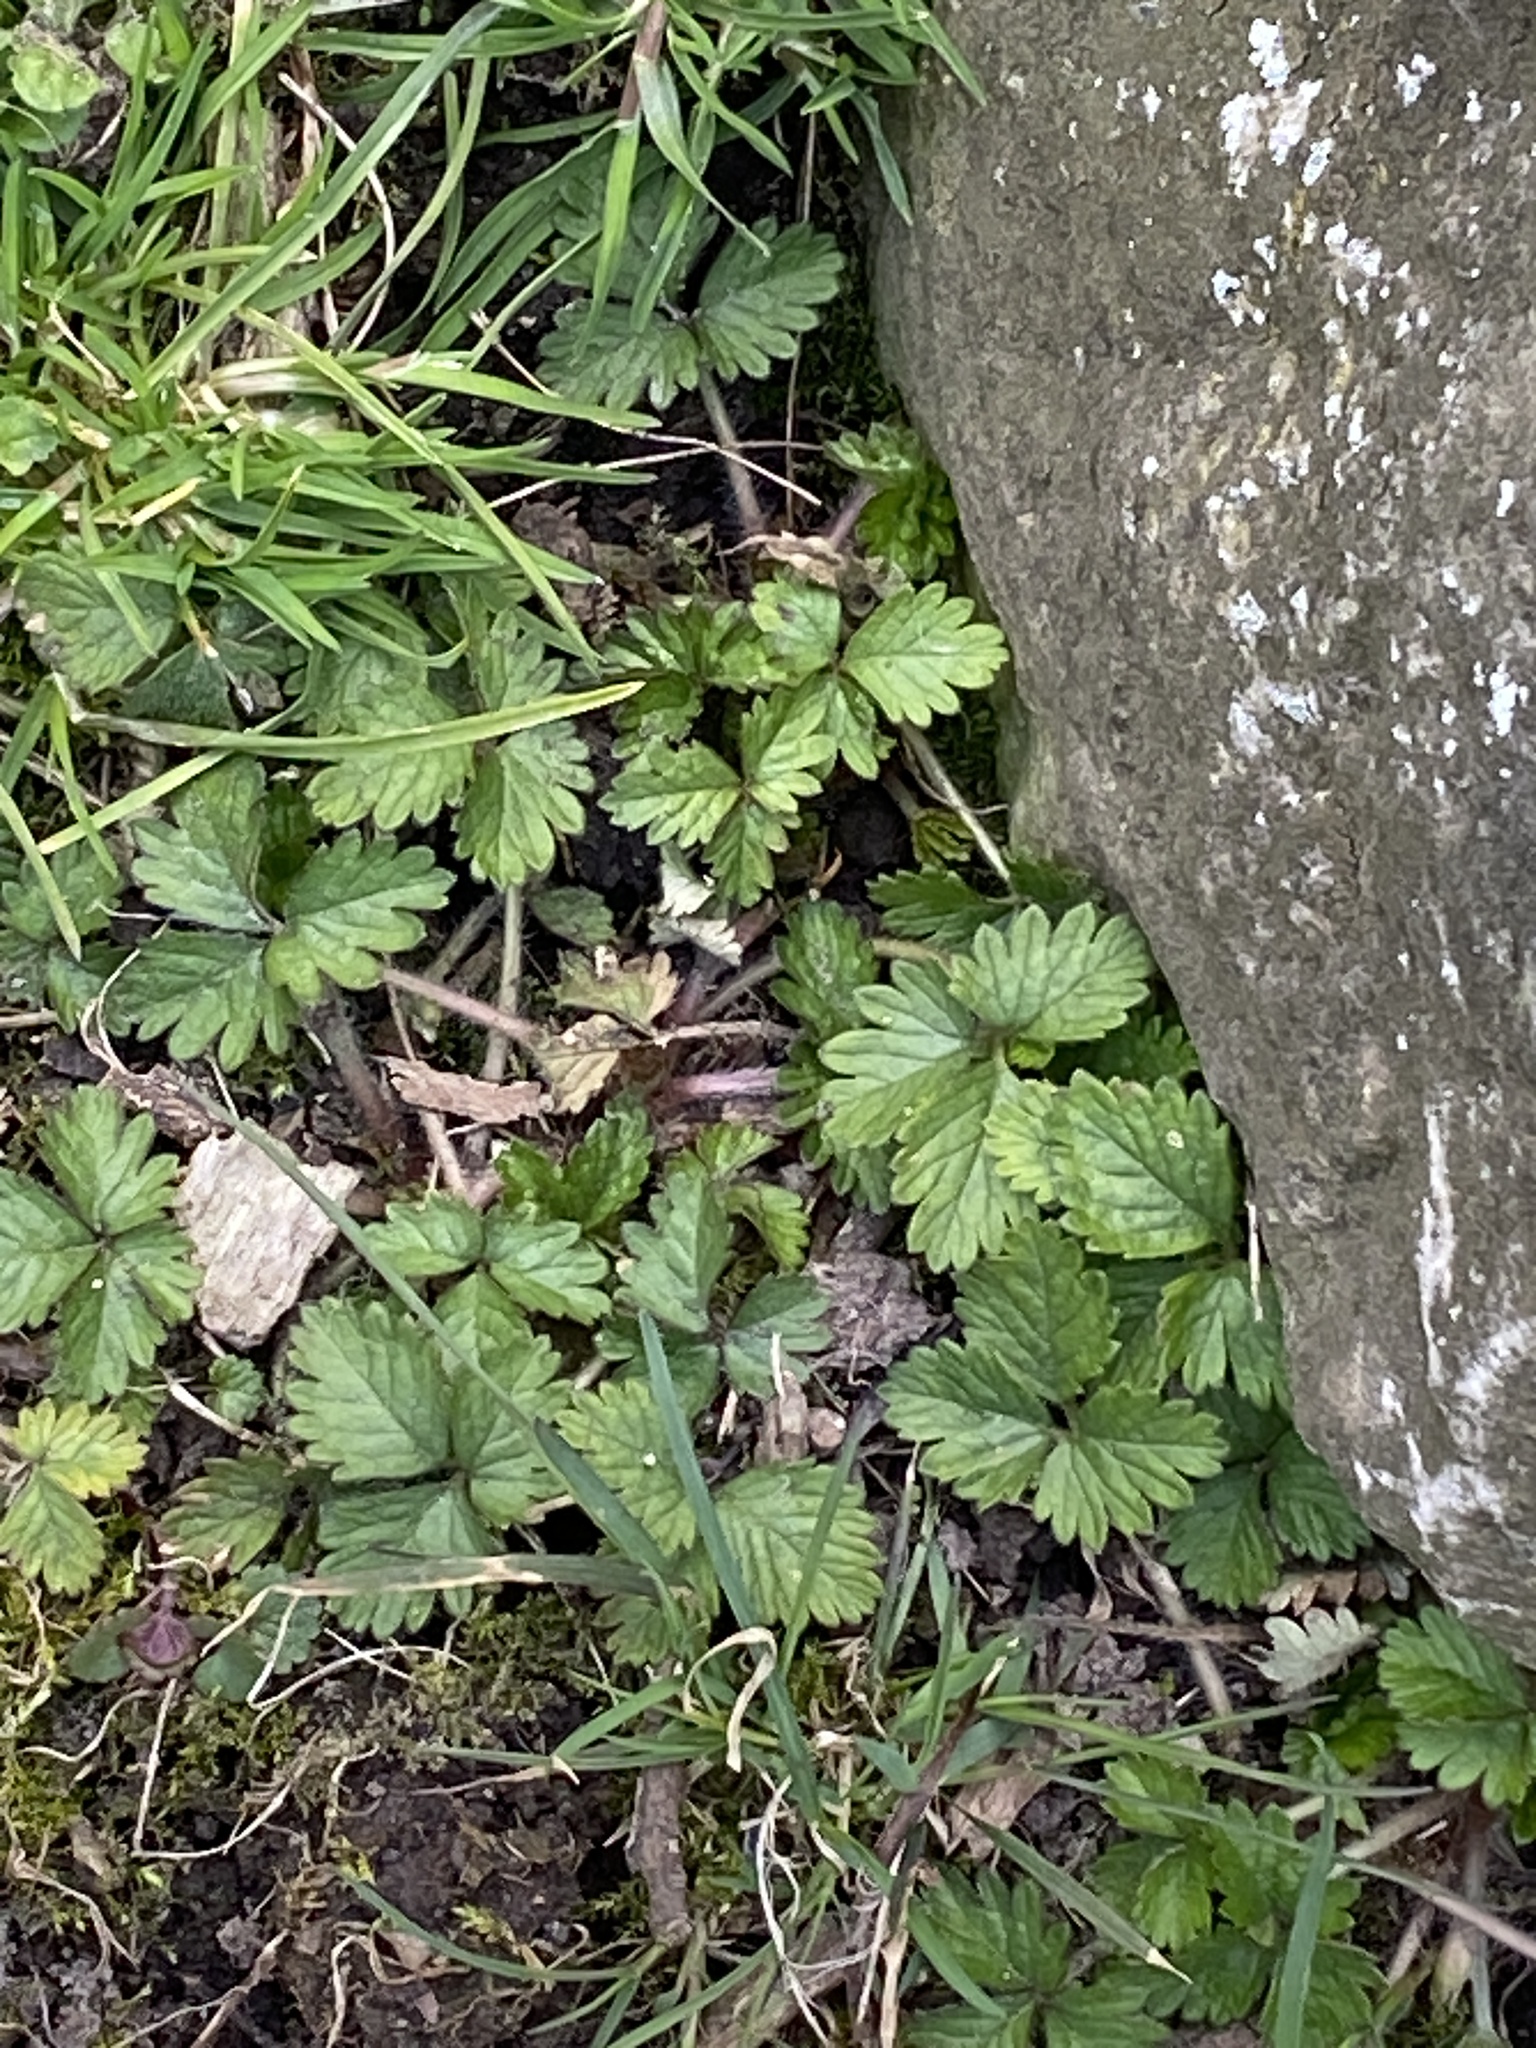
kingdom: Plantae
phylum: Tracheophyta
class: Magnoliopsida
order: Rosales
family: Rosaceae
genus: Potentilla
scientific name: Potentilla indica
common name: Yellow-flowered strawberry
